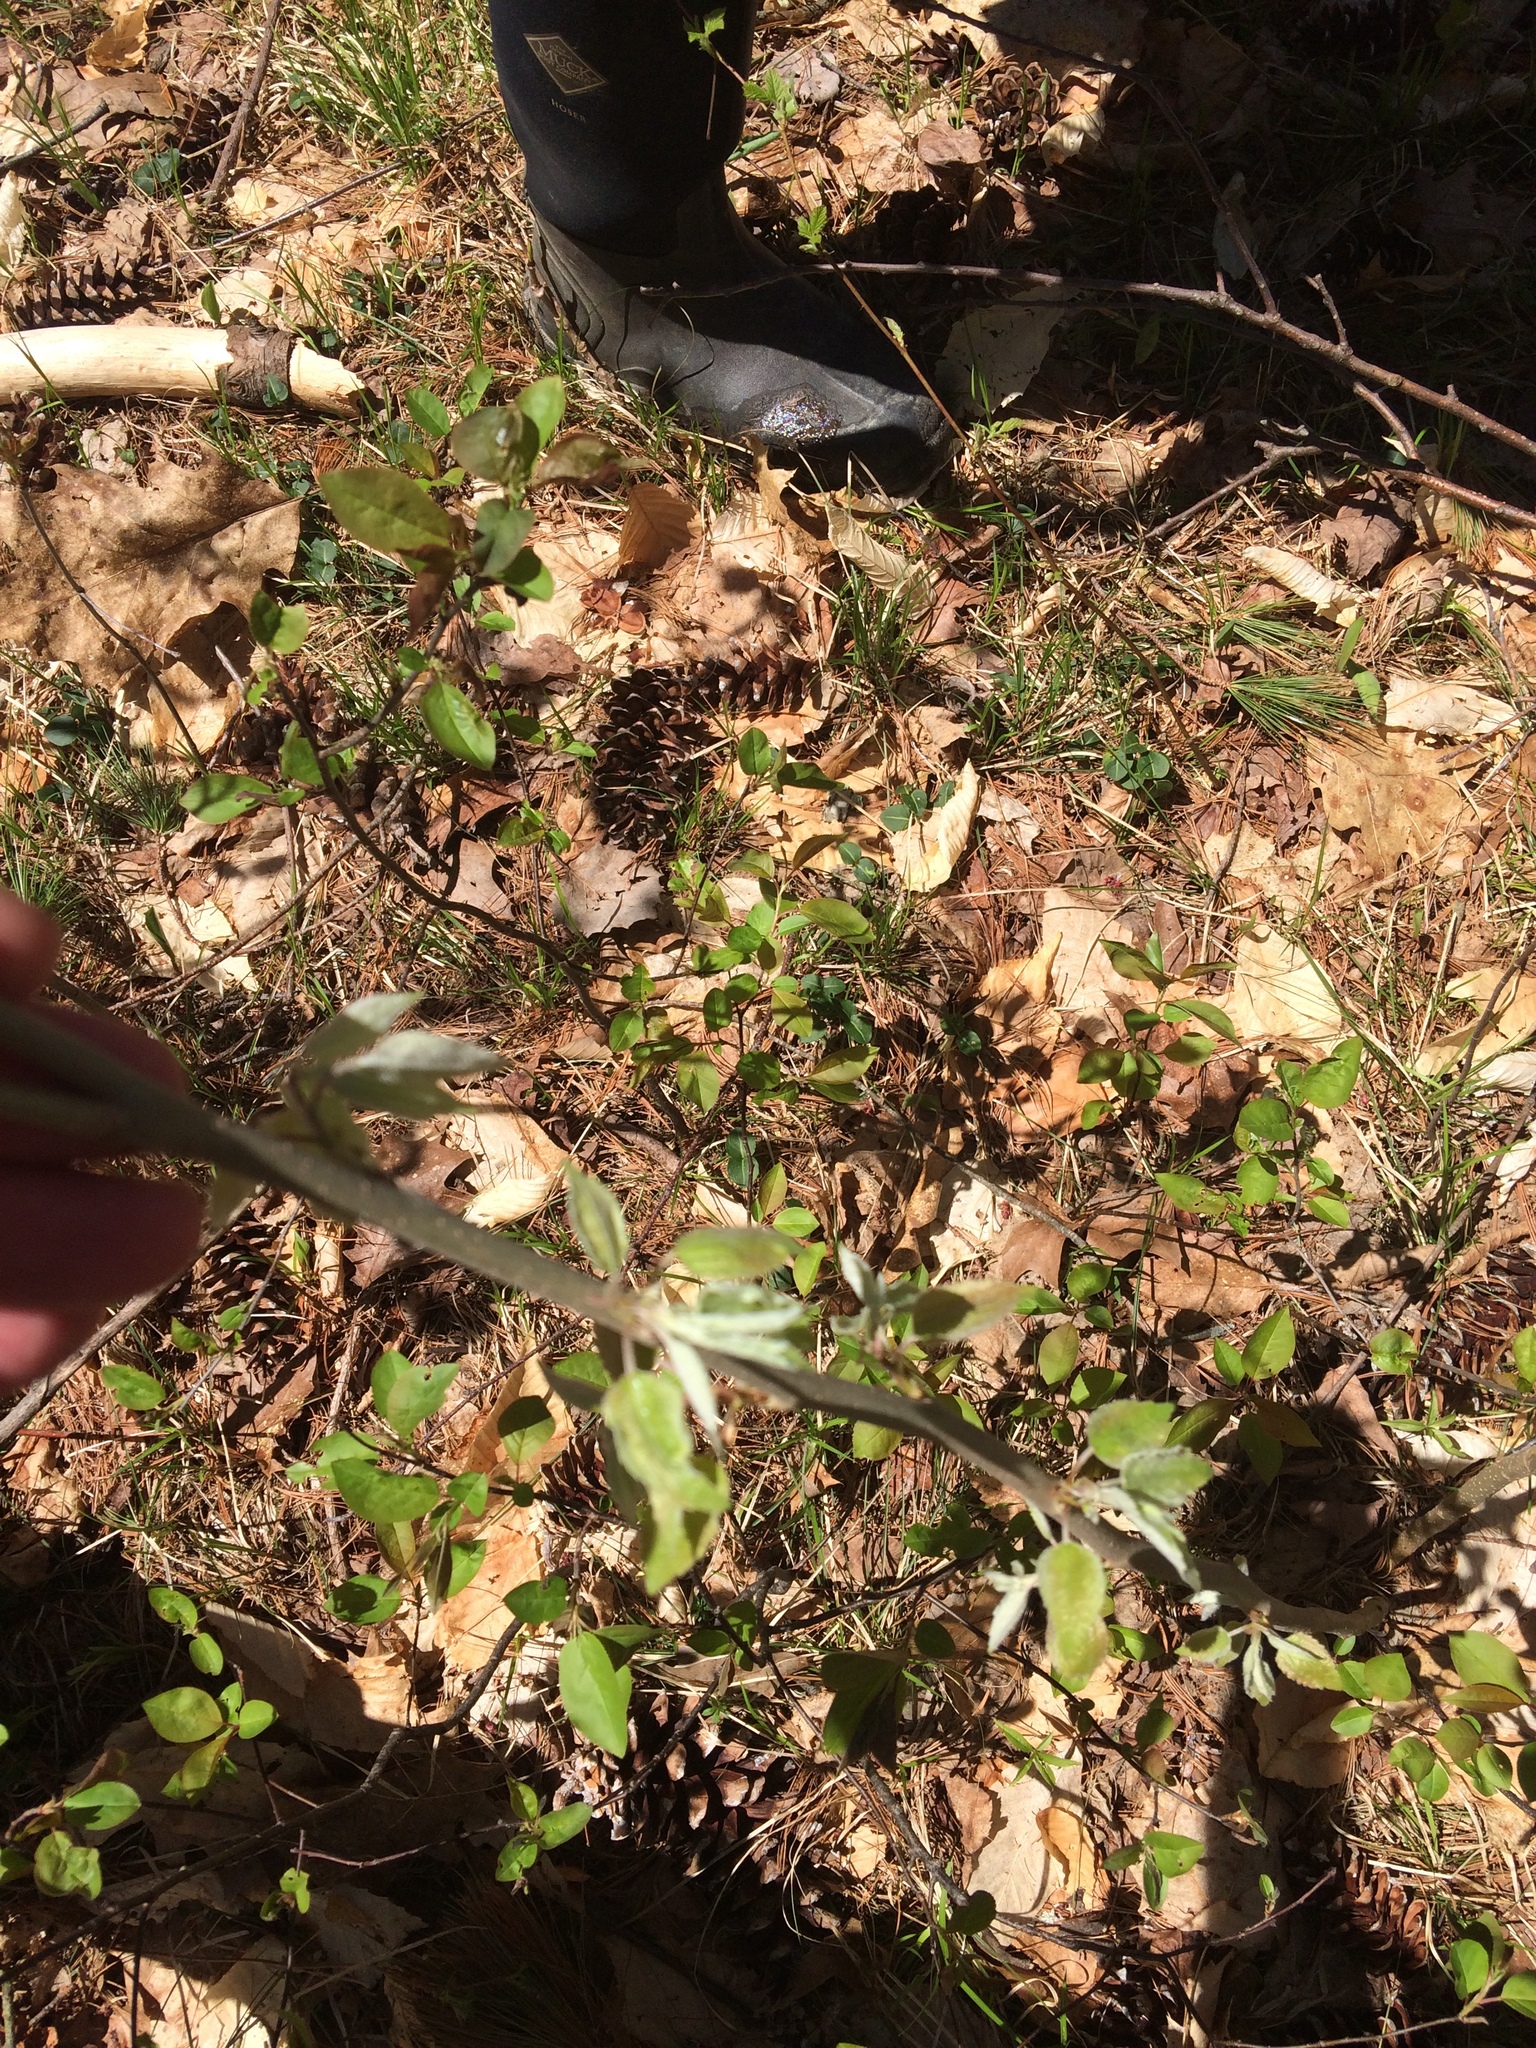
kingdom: Plantae
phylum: Tracheophyta
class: Magnoliopsida
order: Rosales
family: Elaeagnaceae
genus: Elaeagnus
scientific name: Elaeagnus umbellata
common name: Autumn olive
